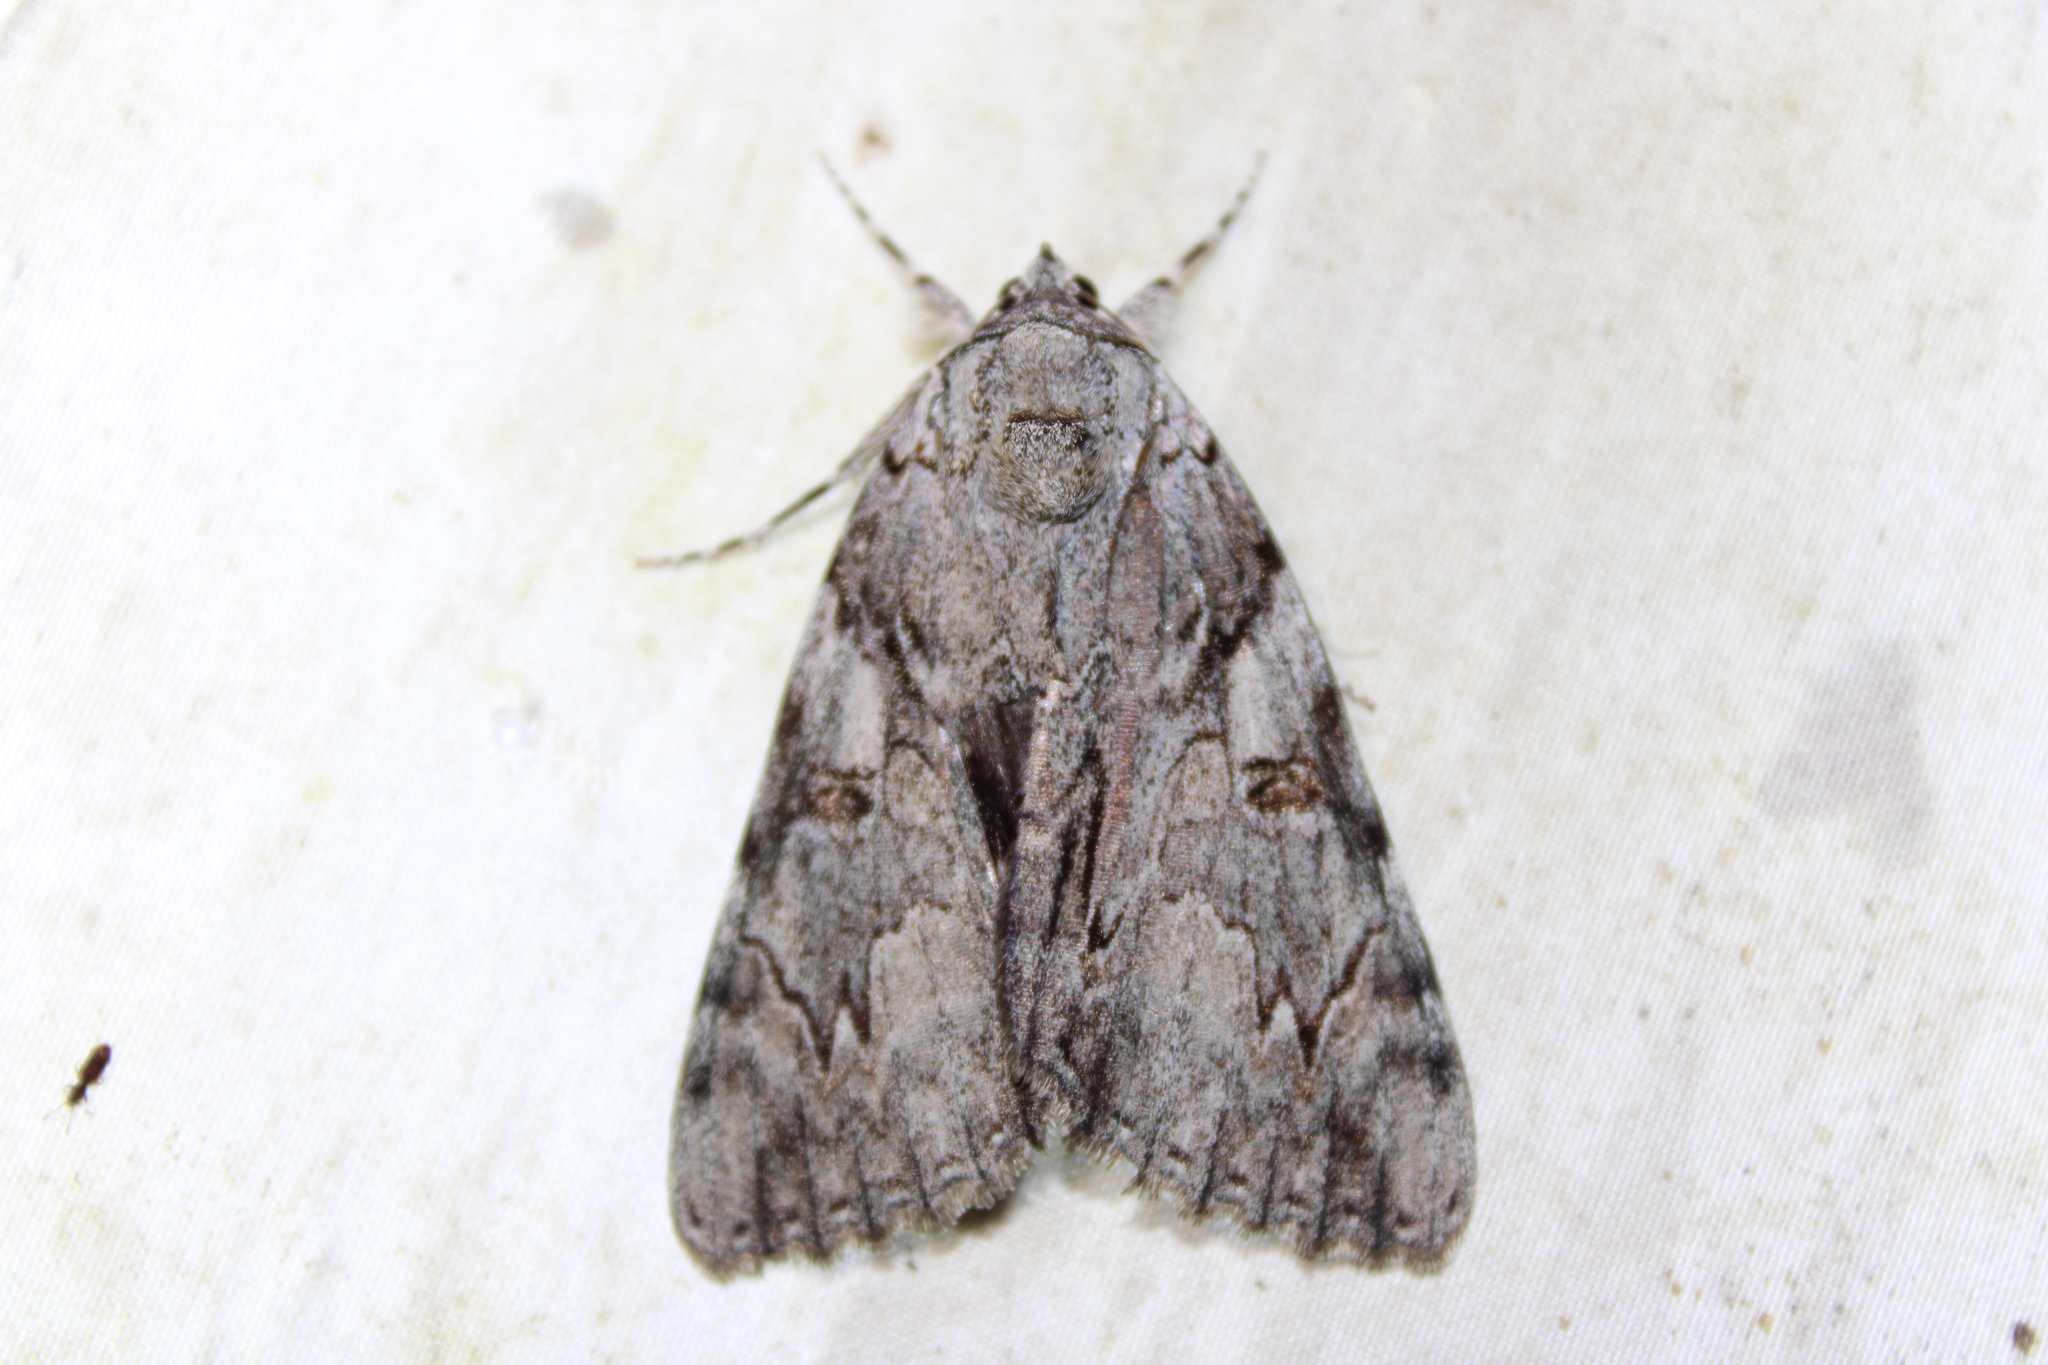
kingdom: Animalia
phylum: Arthropoda
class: Insecta
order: Lepidoptera
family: Erebidae
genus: Catocala
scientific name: Catocala dejecta
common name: Dejected underwing
